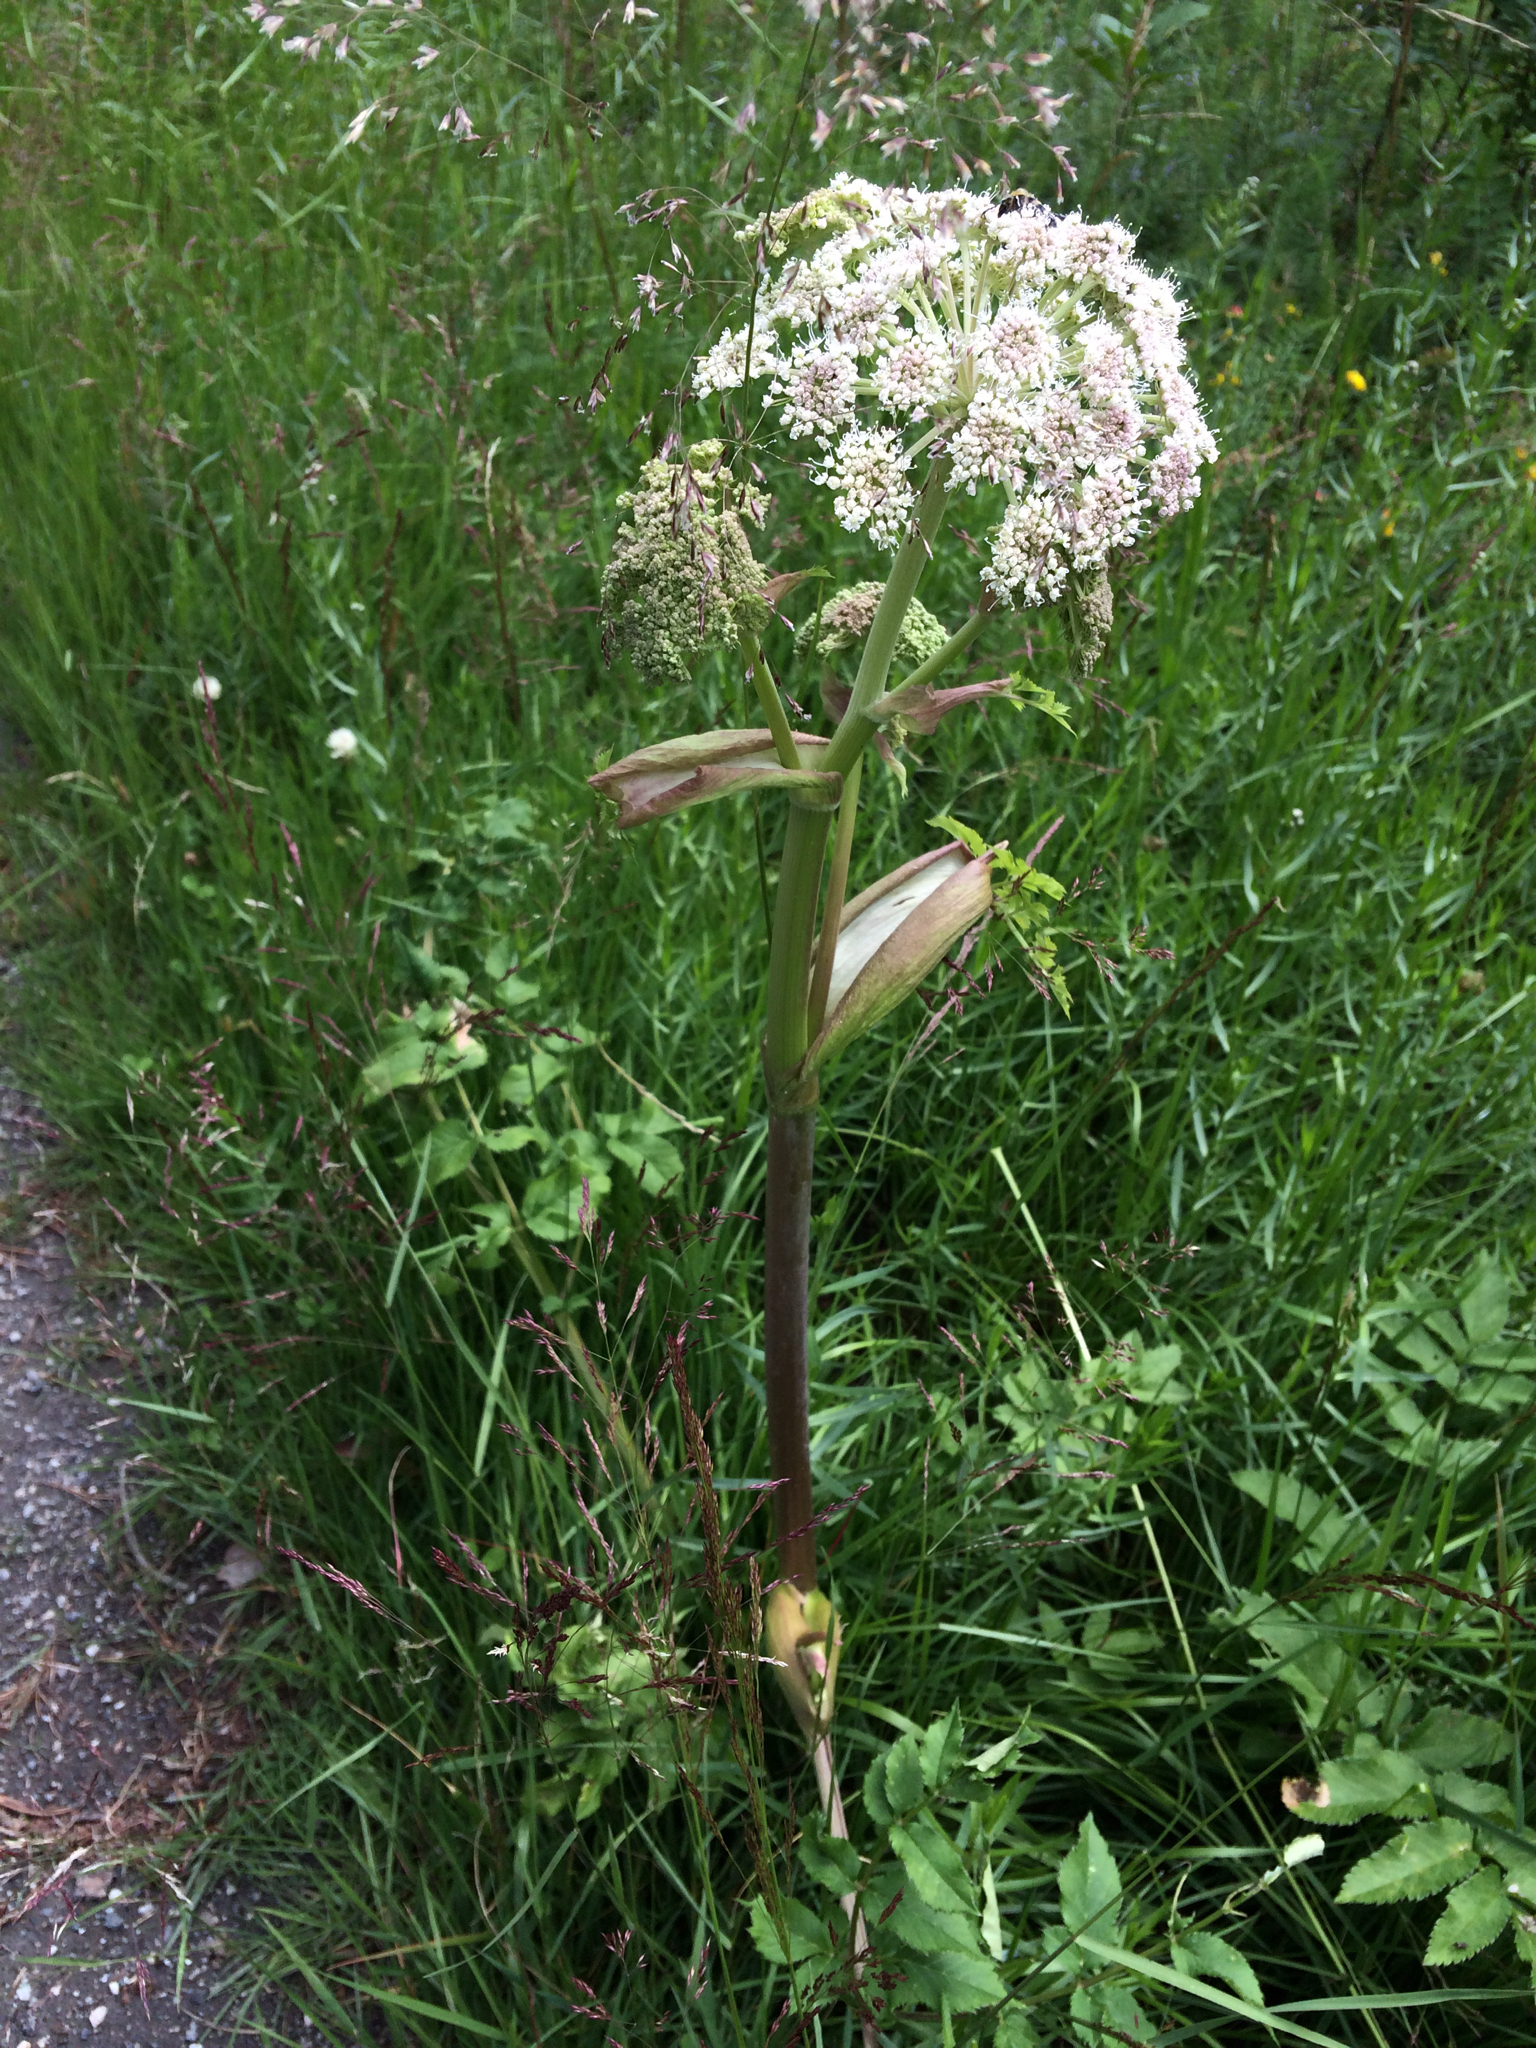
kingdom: Plantae
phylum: Tracheophyta
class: Magnoliopsida
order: Apiales
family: Apiaceae
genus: Angelica
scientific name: Angelica sylvestris
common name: Wild angelica
